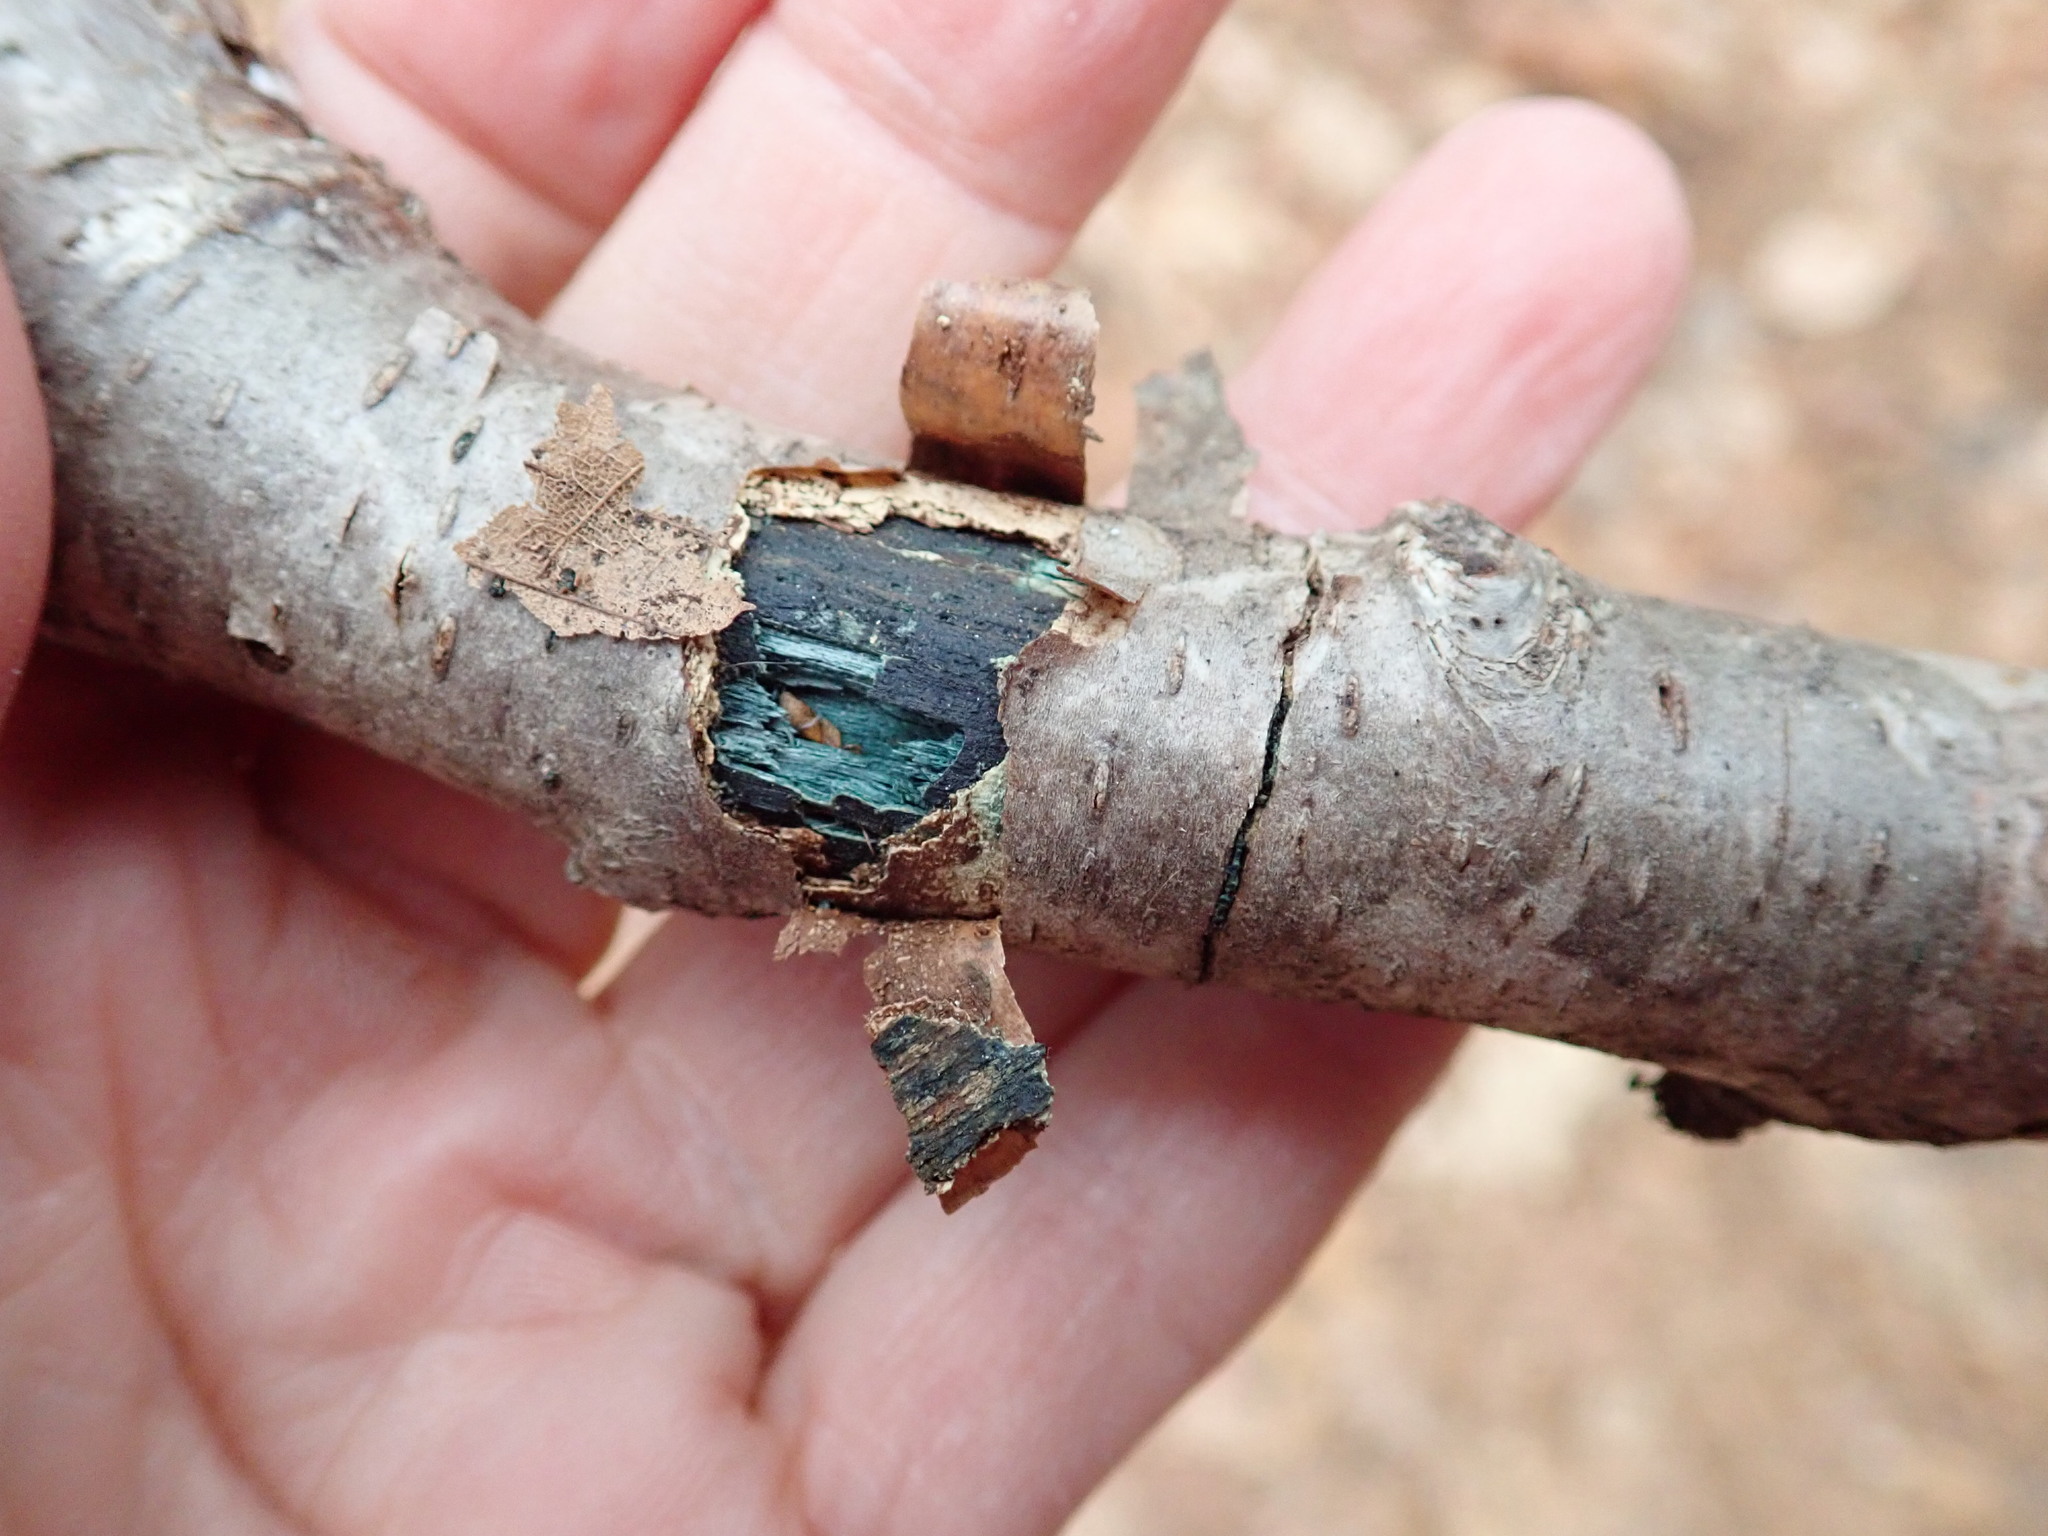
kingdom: Fungi
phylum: Ascomycota
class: Leotiomycetes
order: Helotiales
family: Chlorociboriaceae
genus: Chlorociboria
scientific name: Chlorociboria
